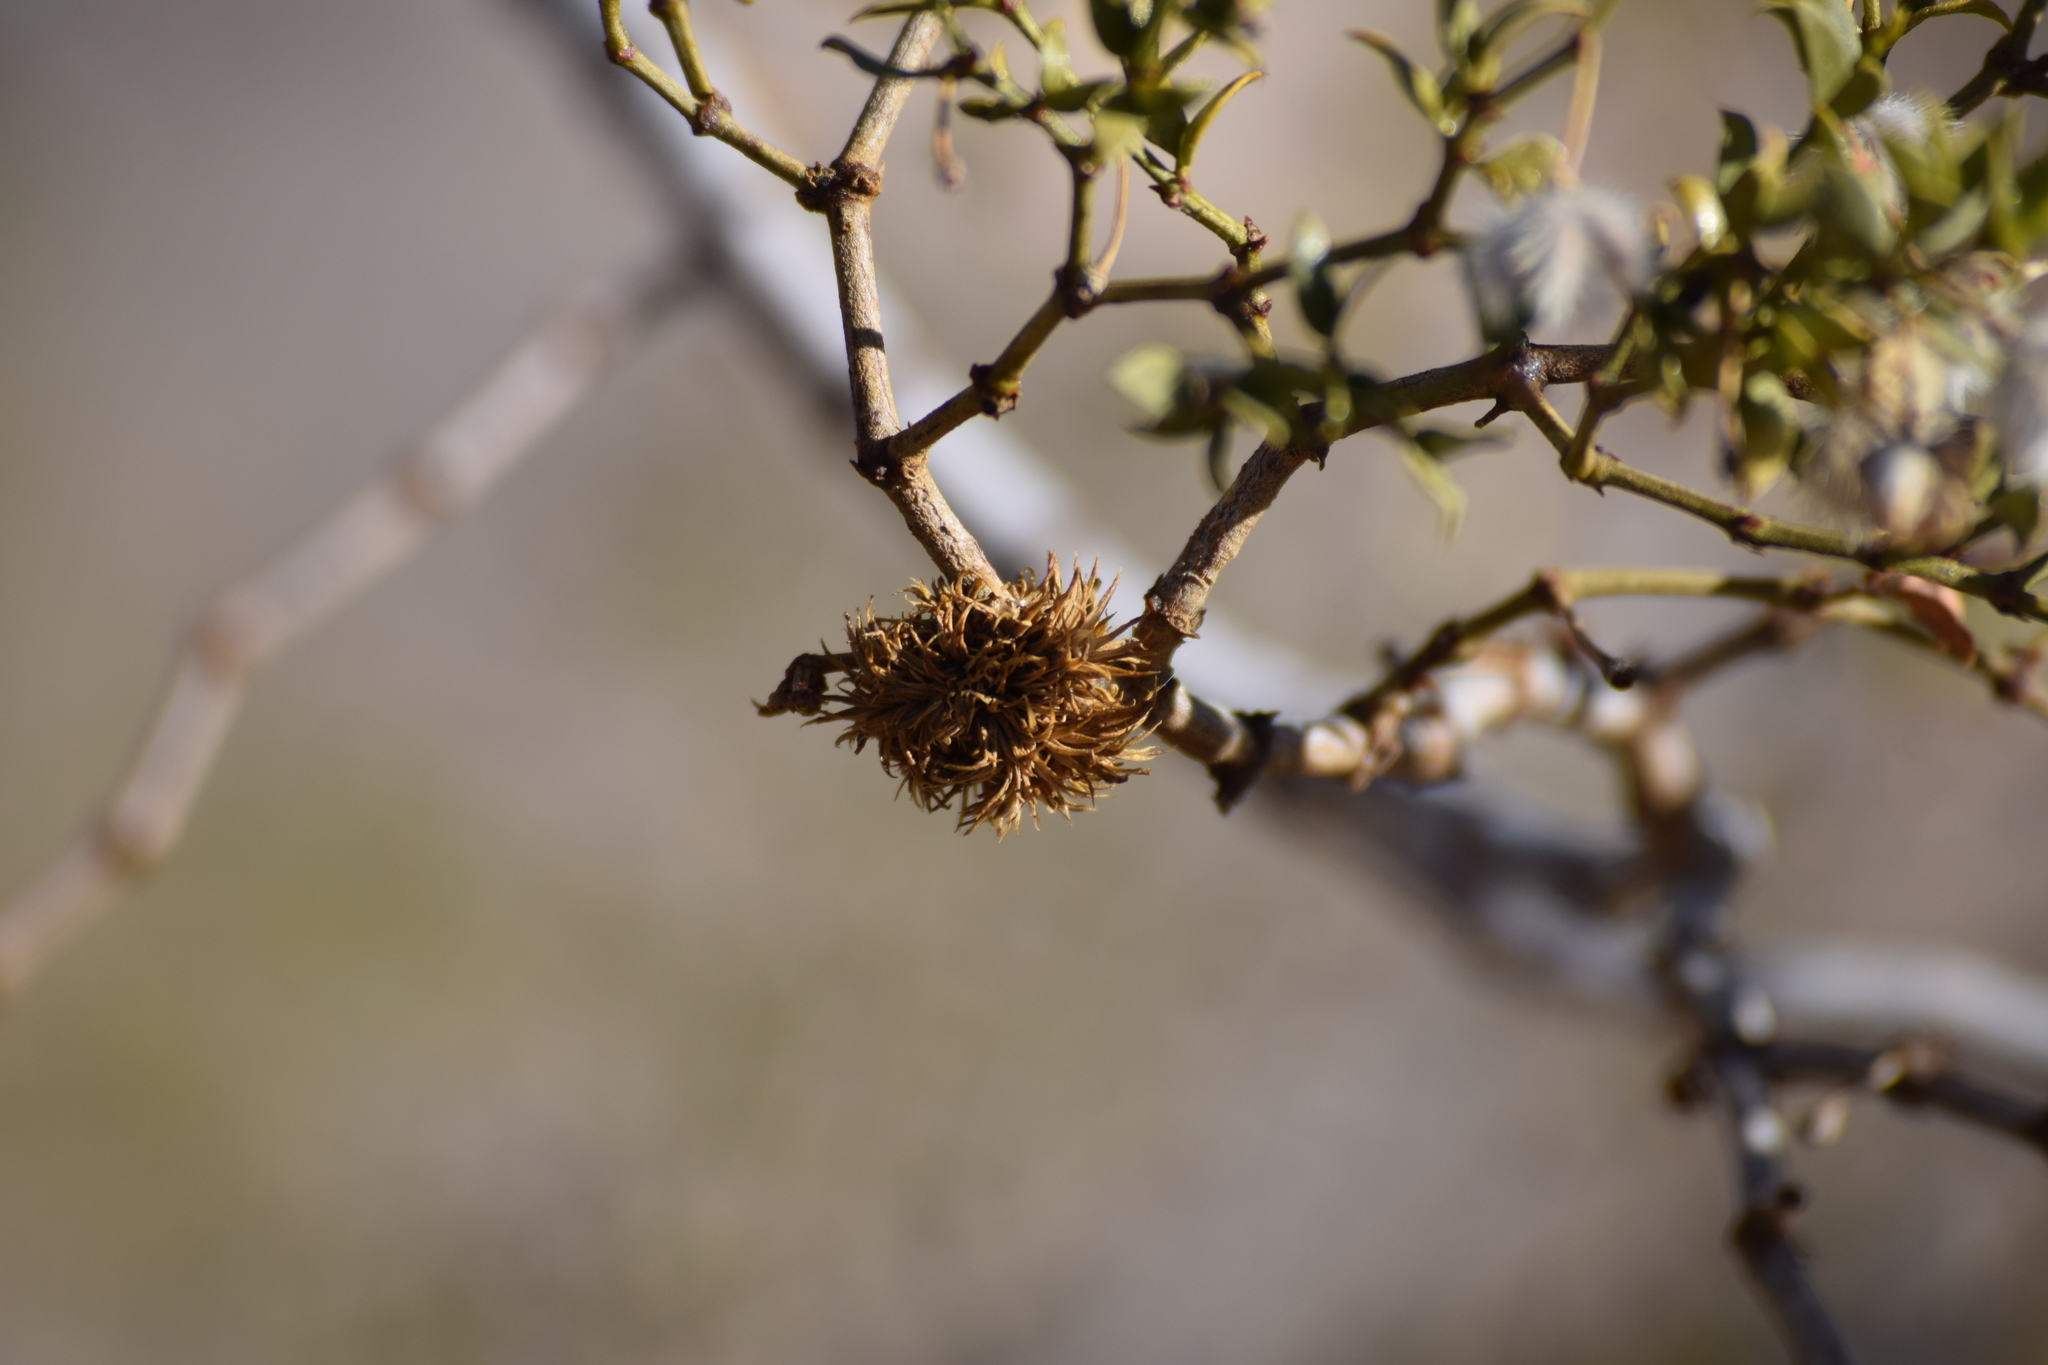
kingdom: Animalia
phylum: Arthropoda
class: Insecta
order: Diptera
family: Cecidomyiidae
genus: Asphondylia
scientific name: Asphondylia auripila
